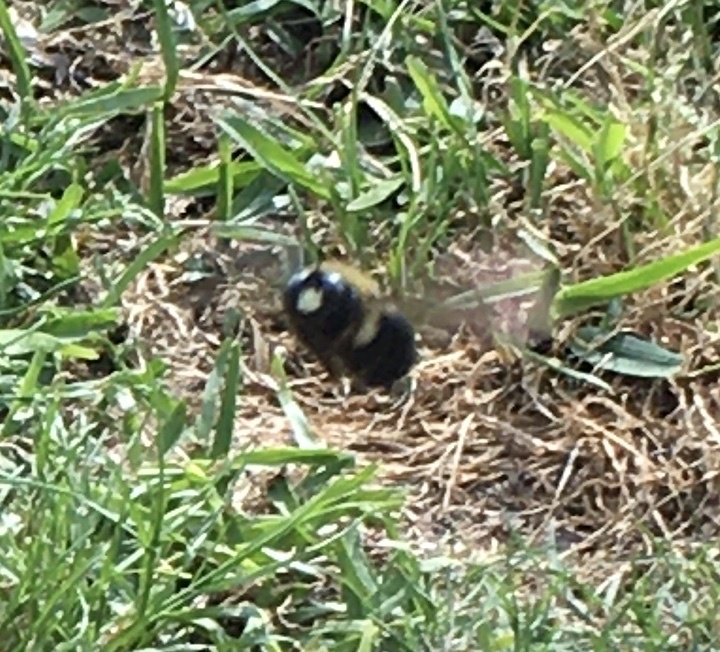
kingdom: Animalia
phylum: Arthropoda
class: Insecta
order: Hymenoptera
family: Apidae
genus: Xylocopa
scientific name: Xylocopa virginica
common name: Carpenter bee
